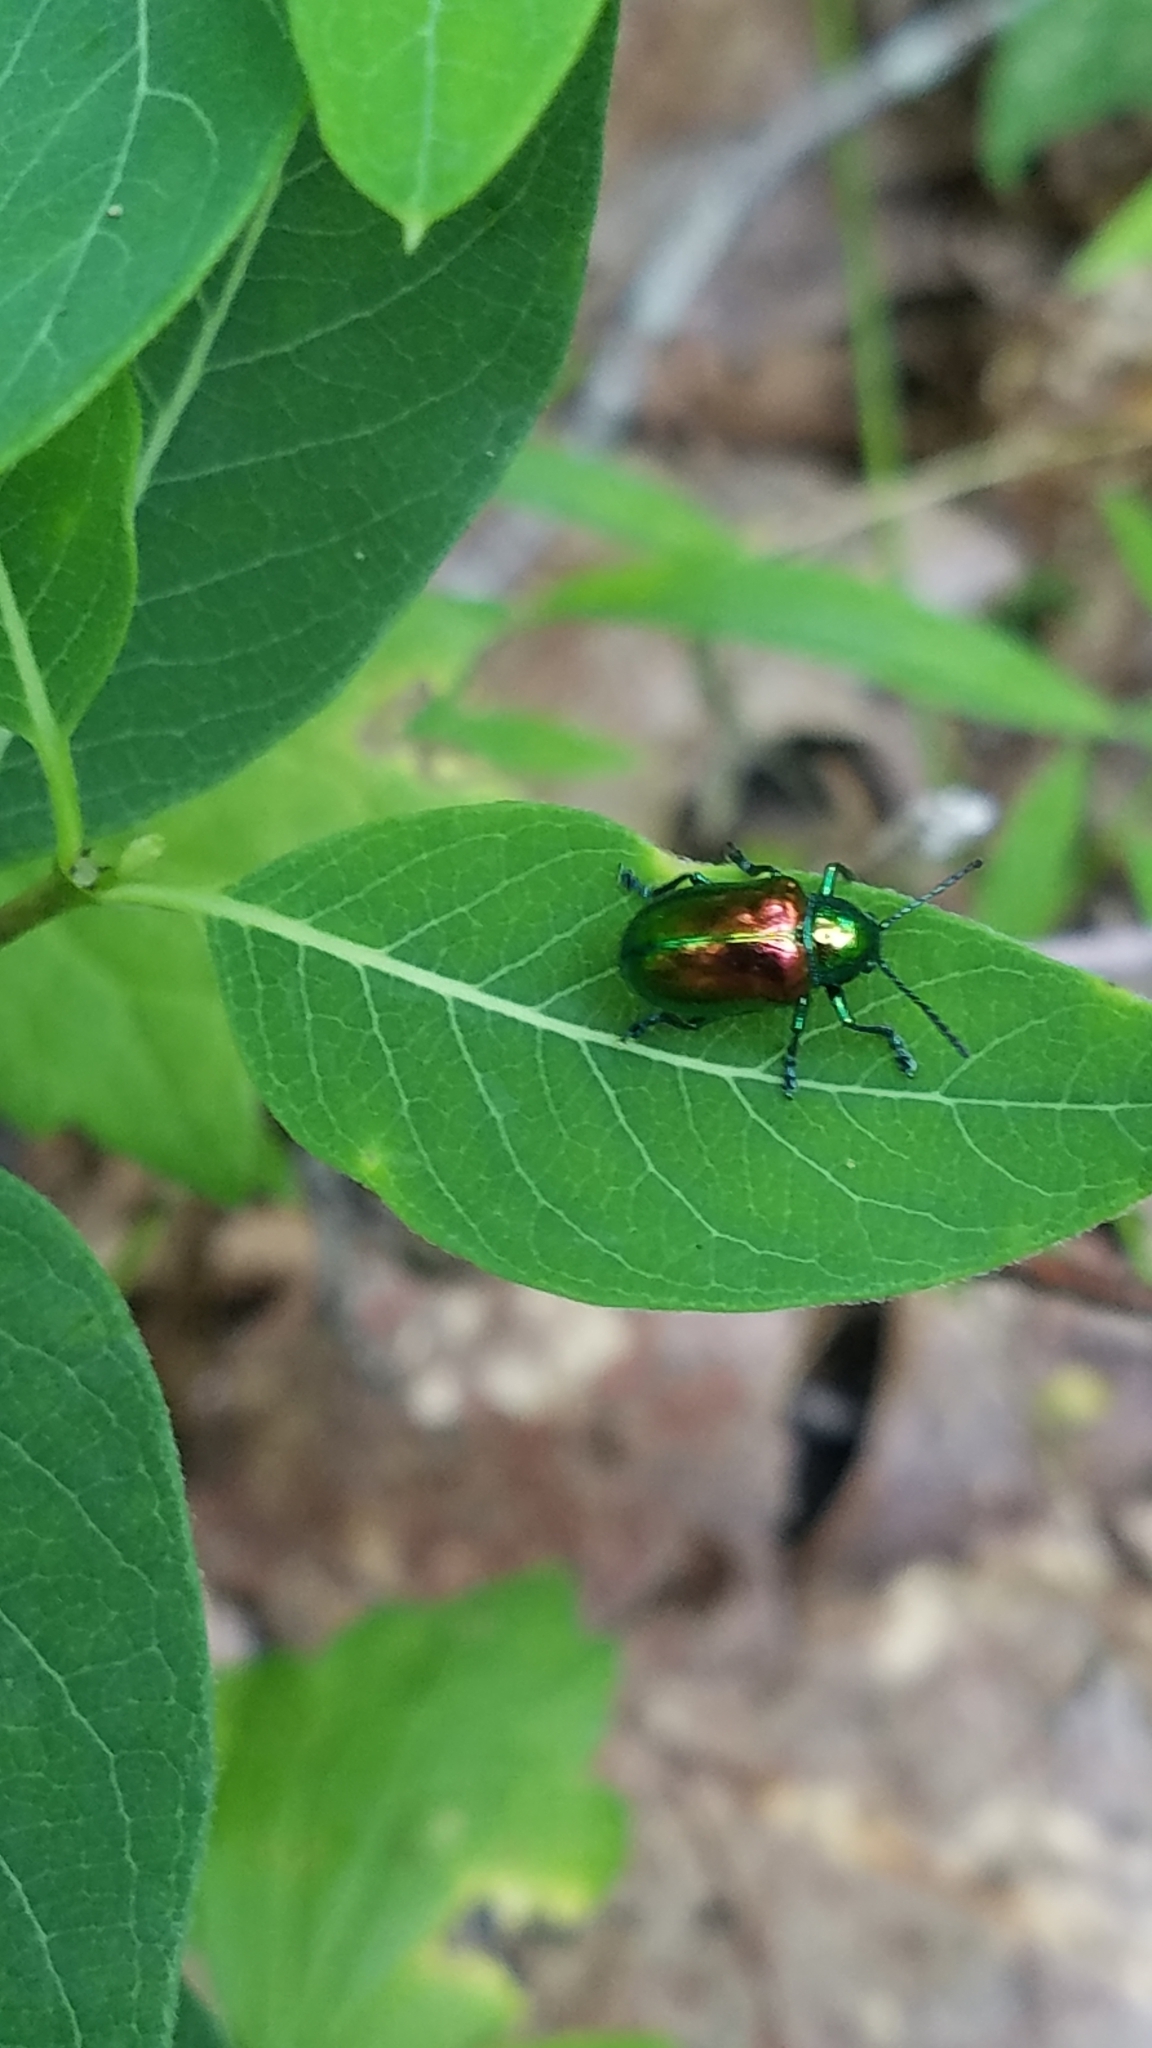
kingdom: Animalia
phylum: Arthropoda
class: Insecta
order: Coleoptera
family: Chrysomelidae
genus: Chrysochus
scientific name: Chrysochus auratus
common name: Dogbane leaf beetle
